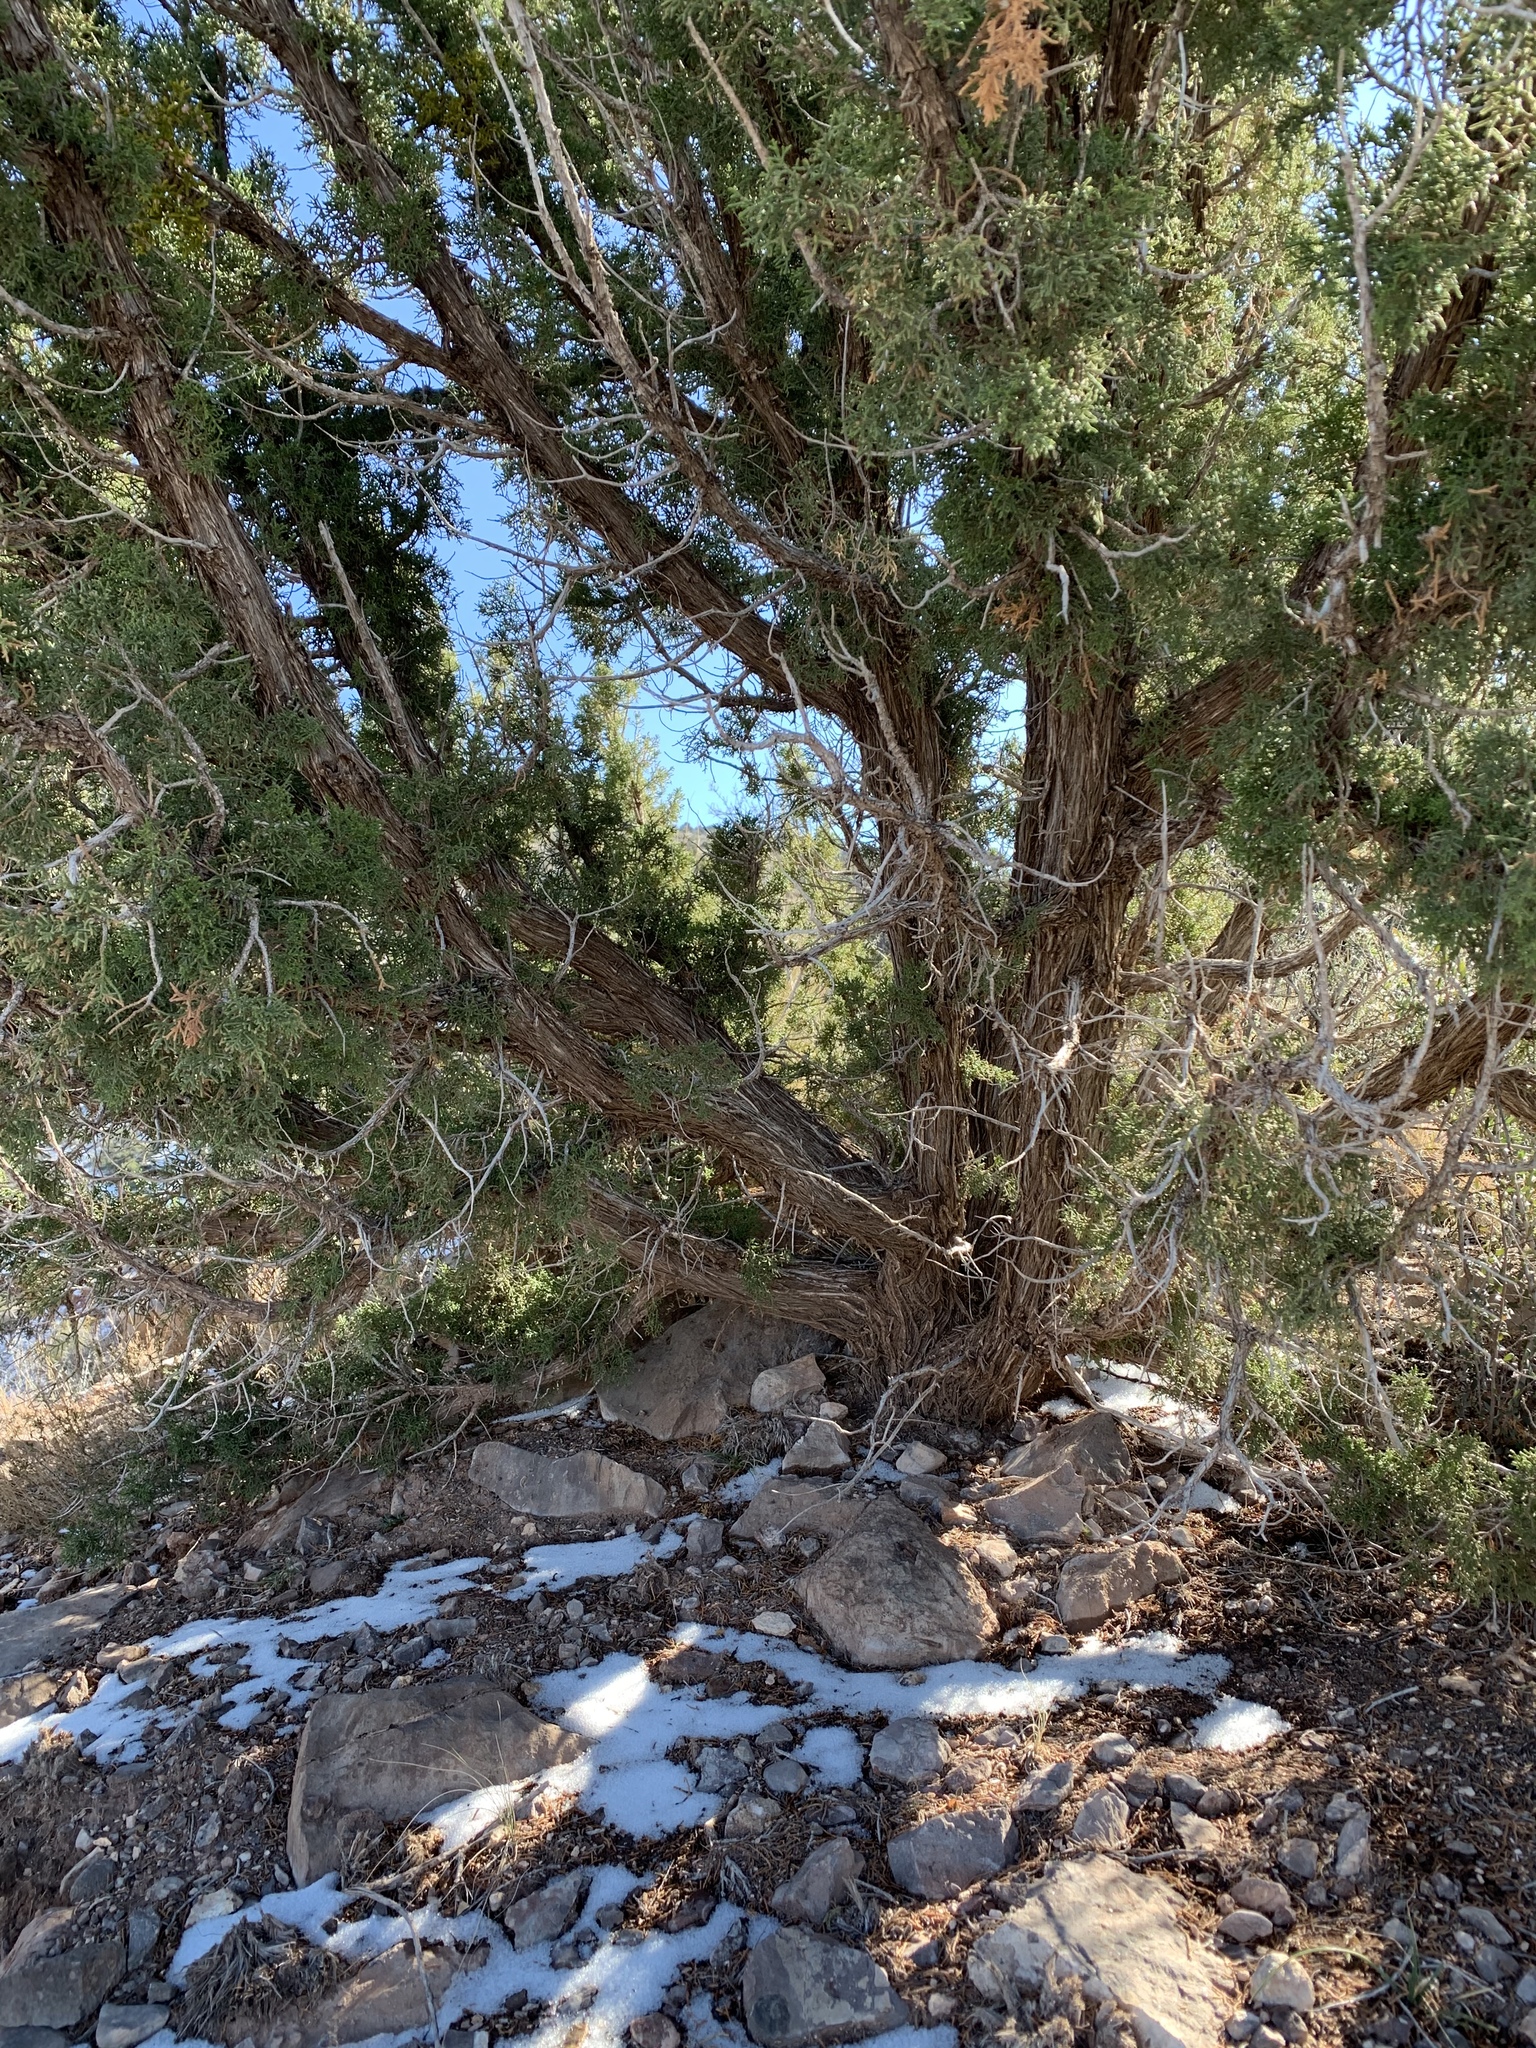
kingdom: Plantae
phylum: Tracheophyta
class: Pinopsida
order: Pinales
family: Cupressaceae
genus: Juniperus
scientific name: Juniperus monosperma
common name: One-seed juniper
